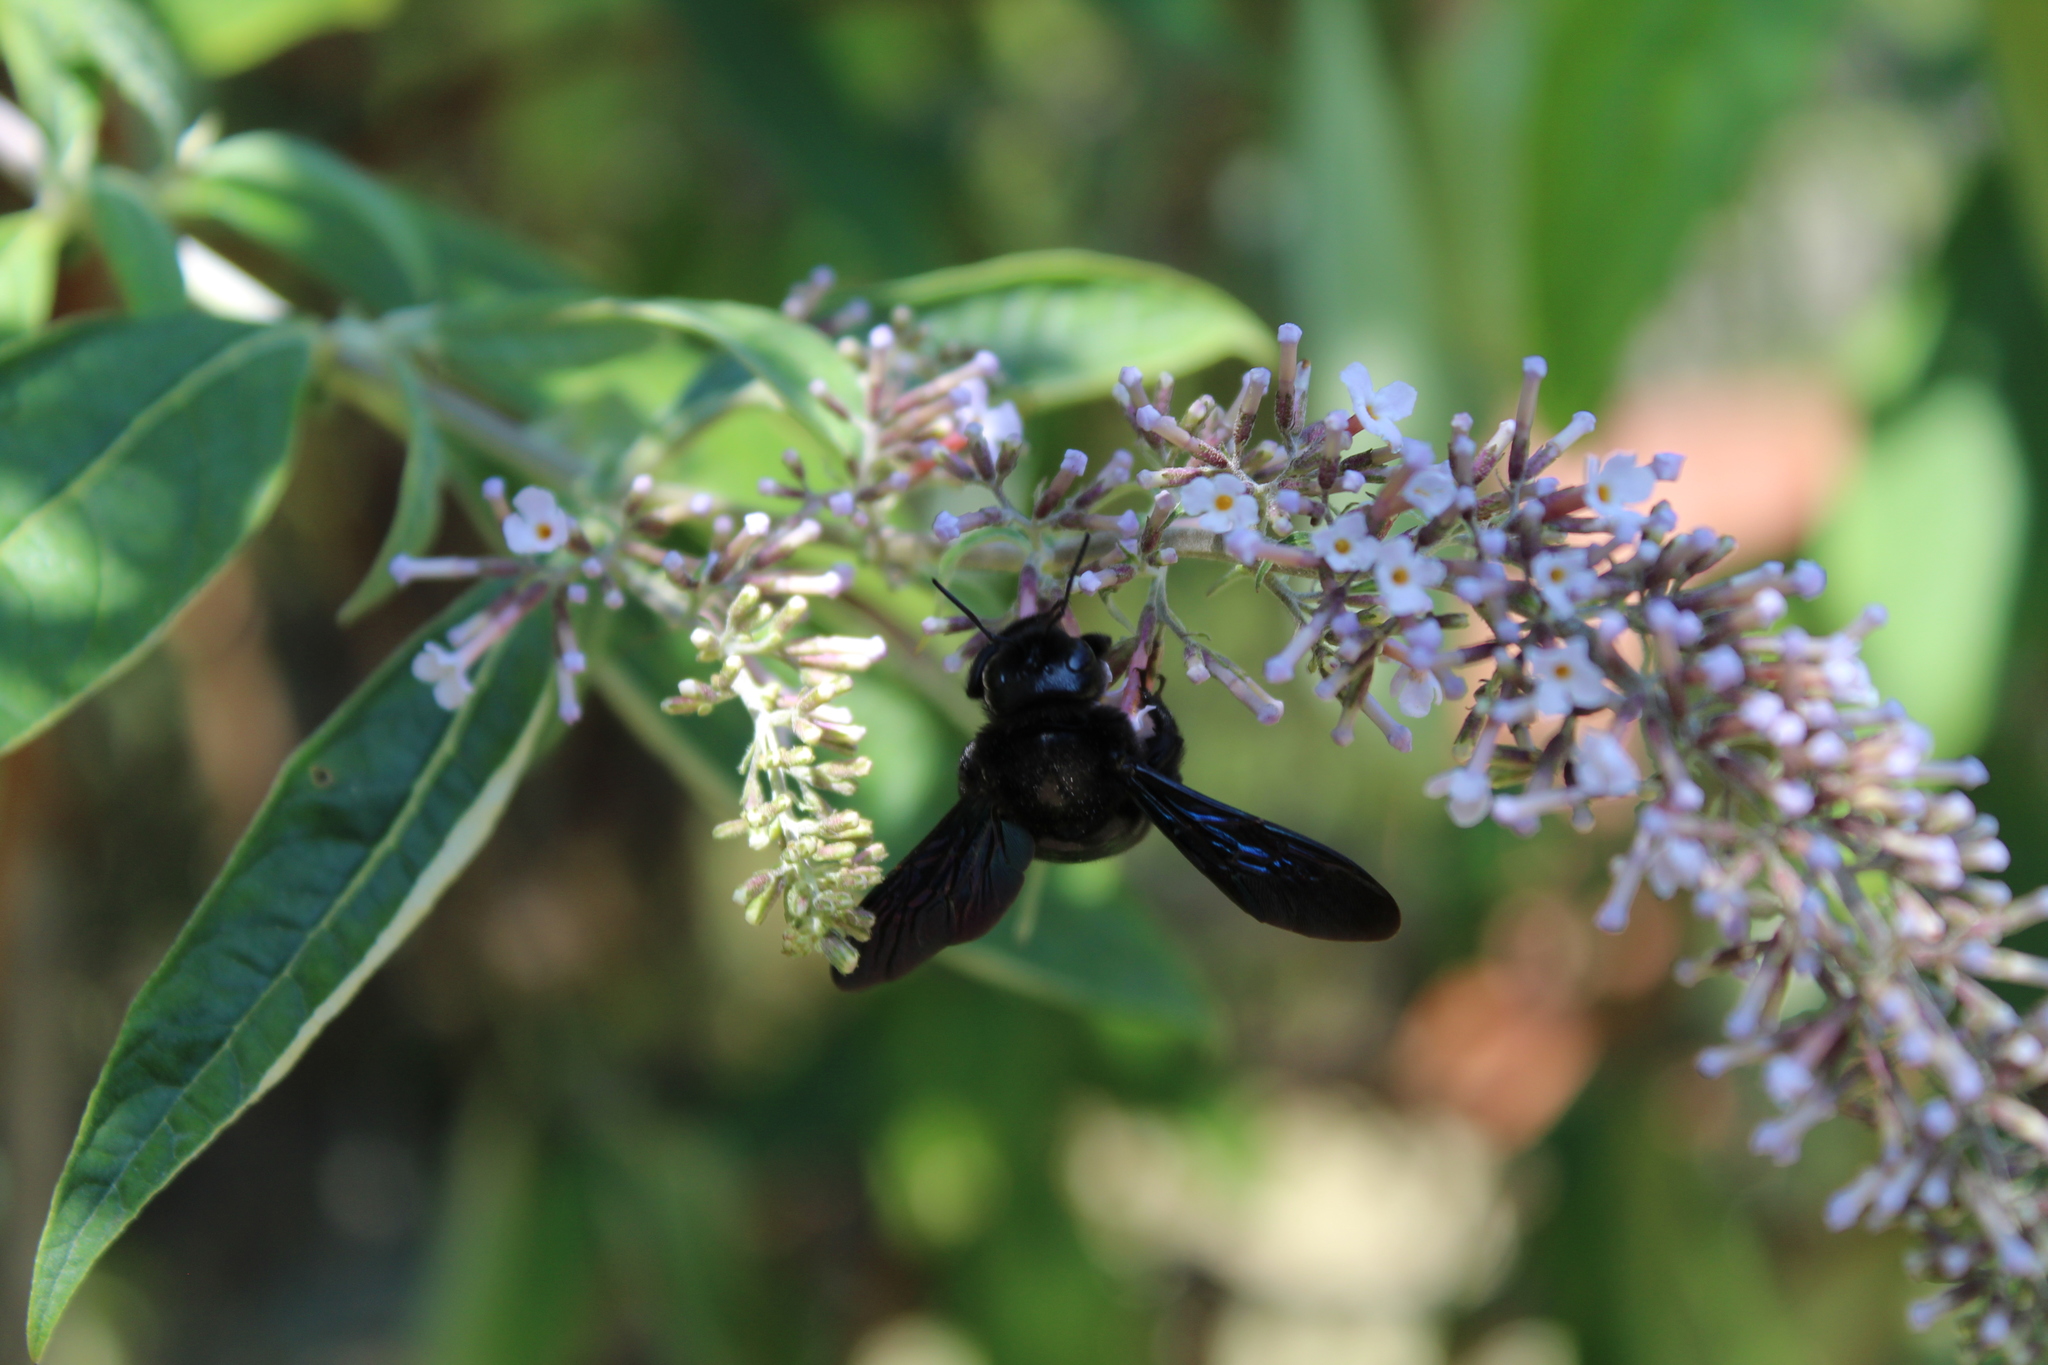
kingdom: Animalia
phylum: Arthropoda
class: Insecta
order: Hymenoptera
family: Apidae
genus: Xylocopa
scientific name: Xylocopa violacea
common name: Violet carpenter bee
